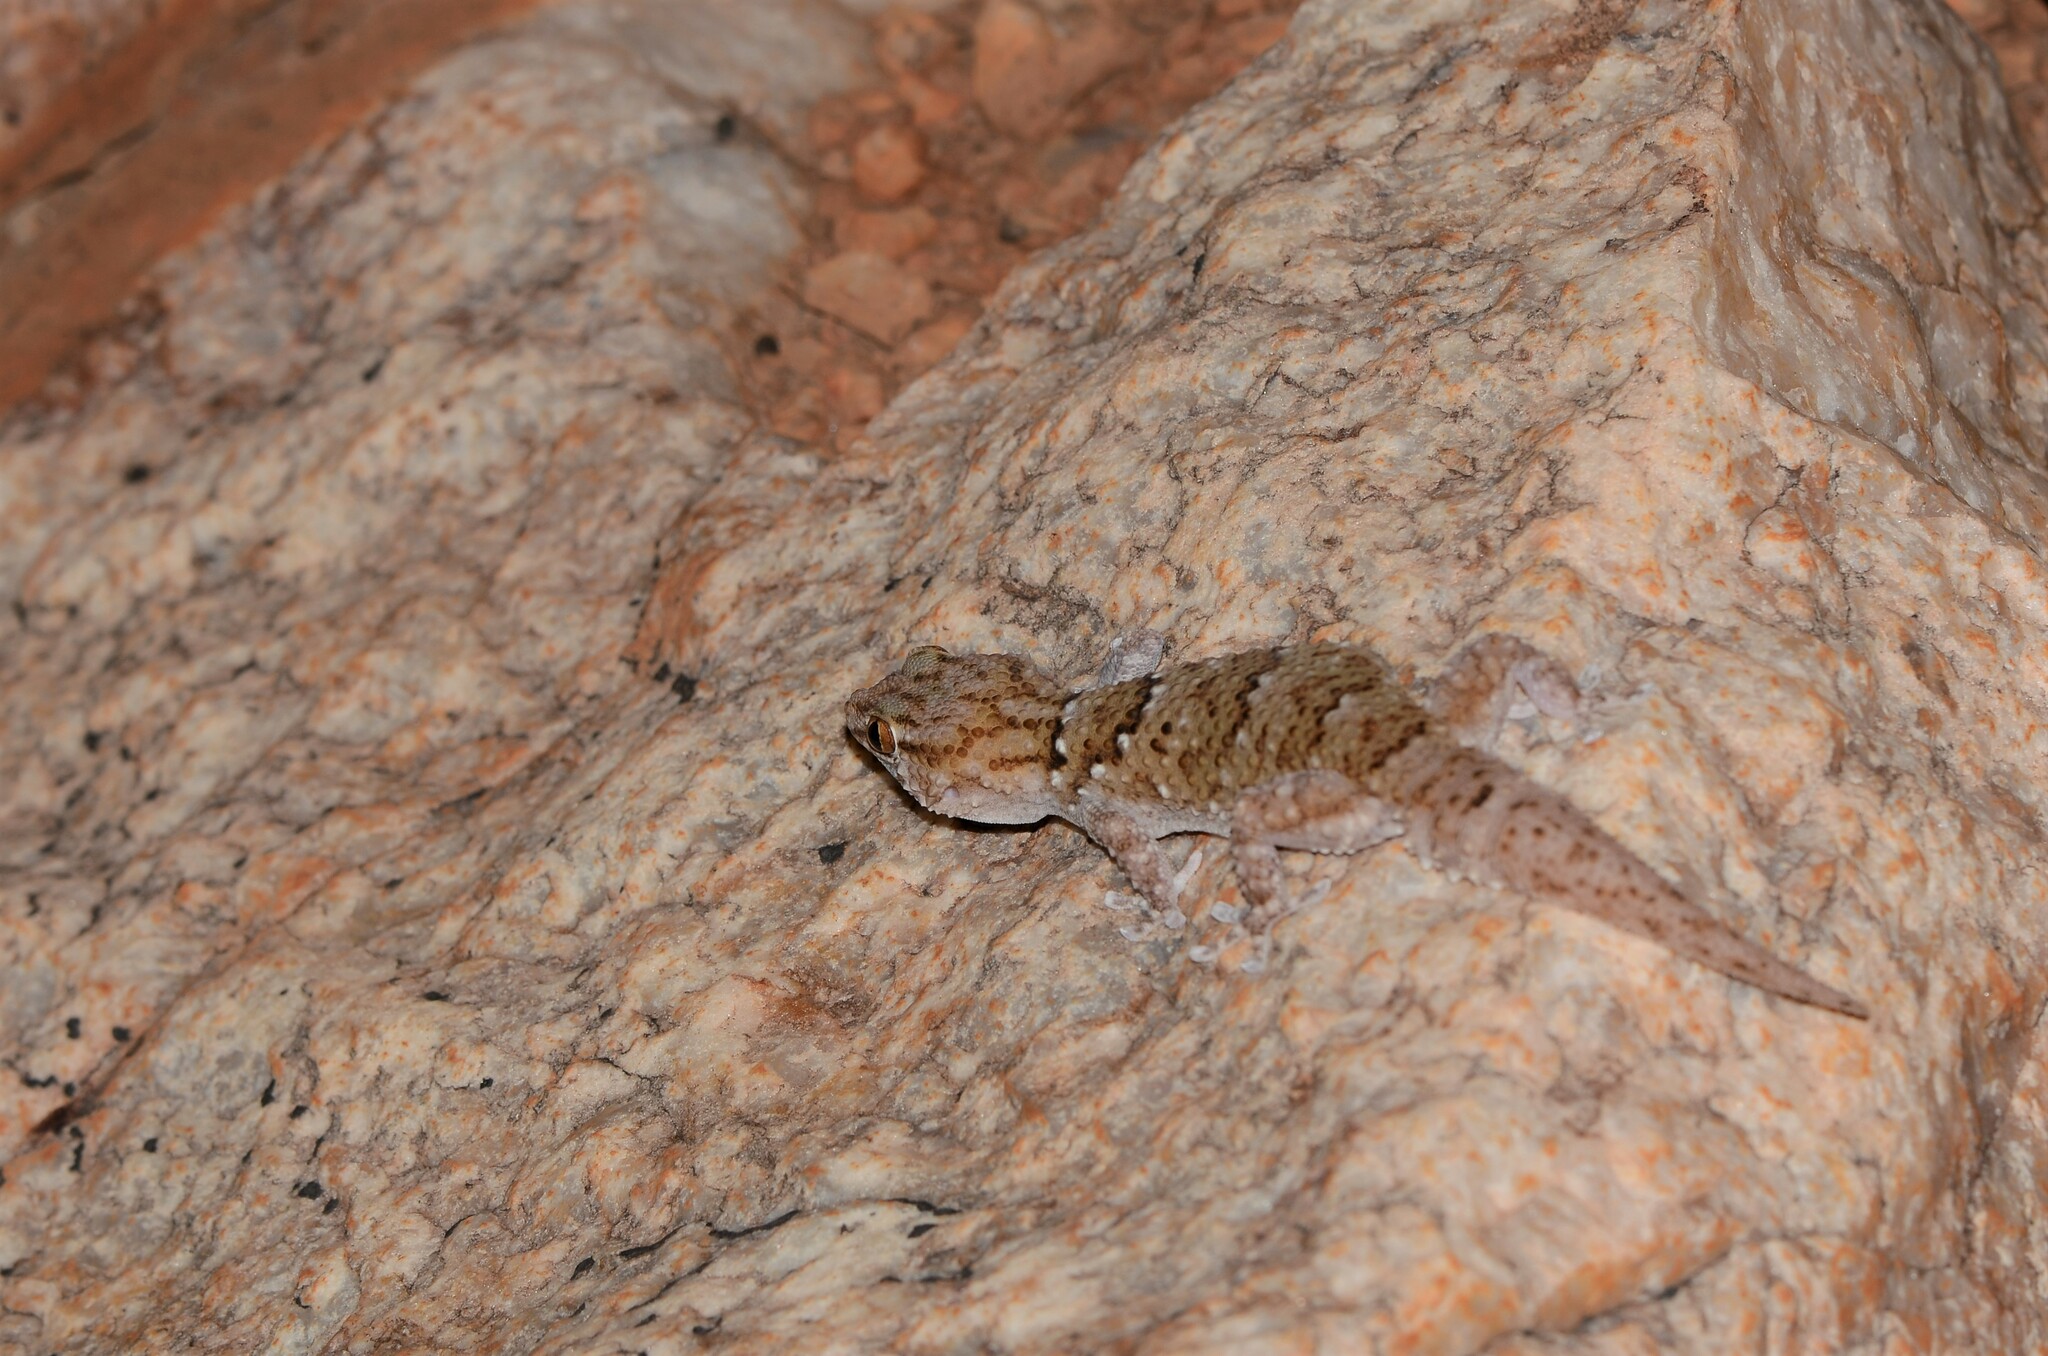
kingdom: Animalia
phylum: Chordata
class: Squamata
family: Gekkonidae
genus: Chondrodactylus
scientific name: Chondrodactylus laevigatus
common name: Fischer's thick-toed gecko
